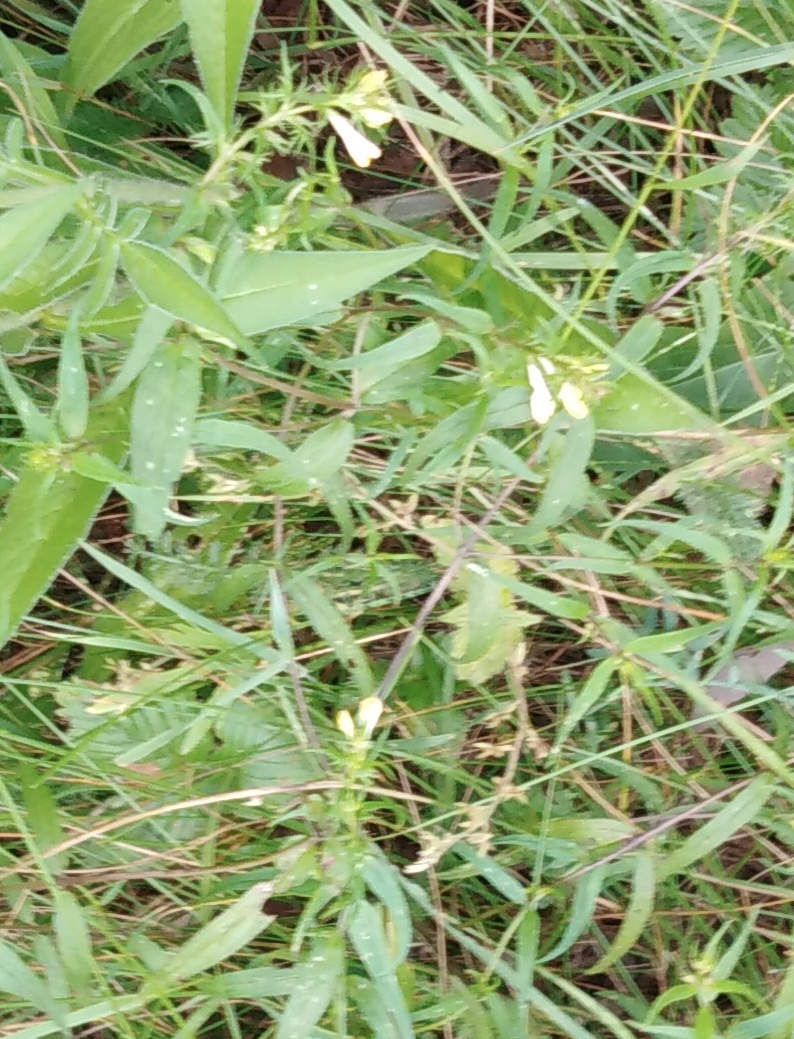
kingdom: Plantae
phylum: Tracheophyta
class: Magnoliopsida
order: Lamiales
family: Orobanchaceae
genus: Melampyrum
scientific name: Melampyrum pratense
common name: Common cow-wheat
